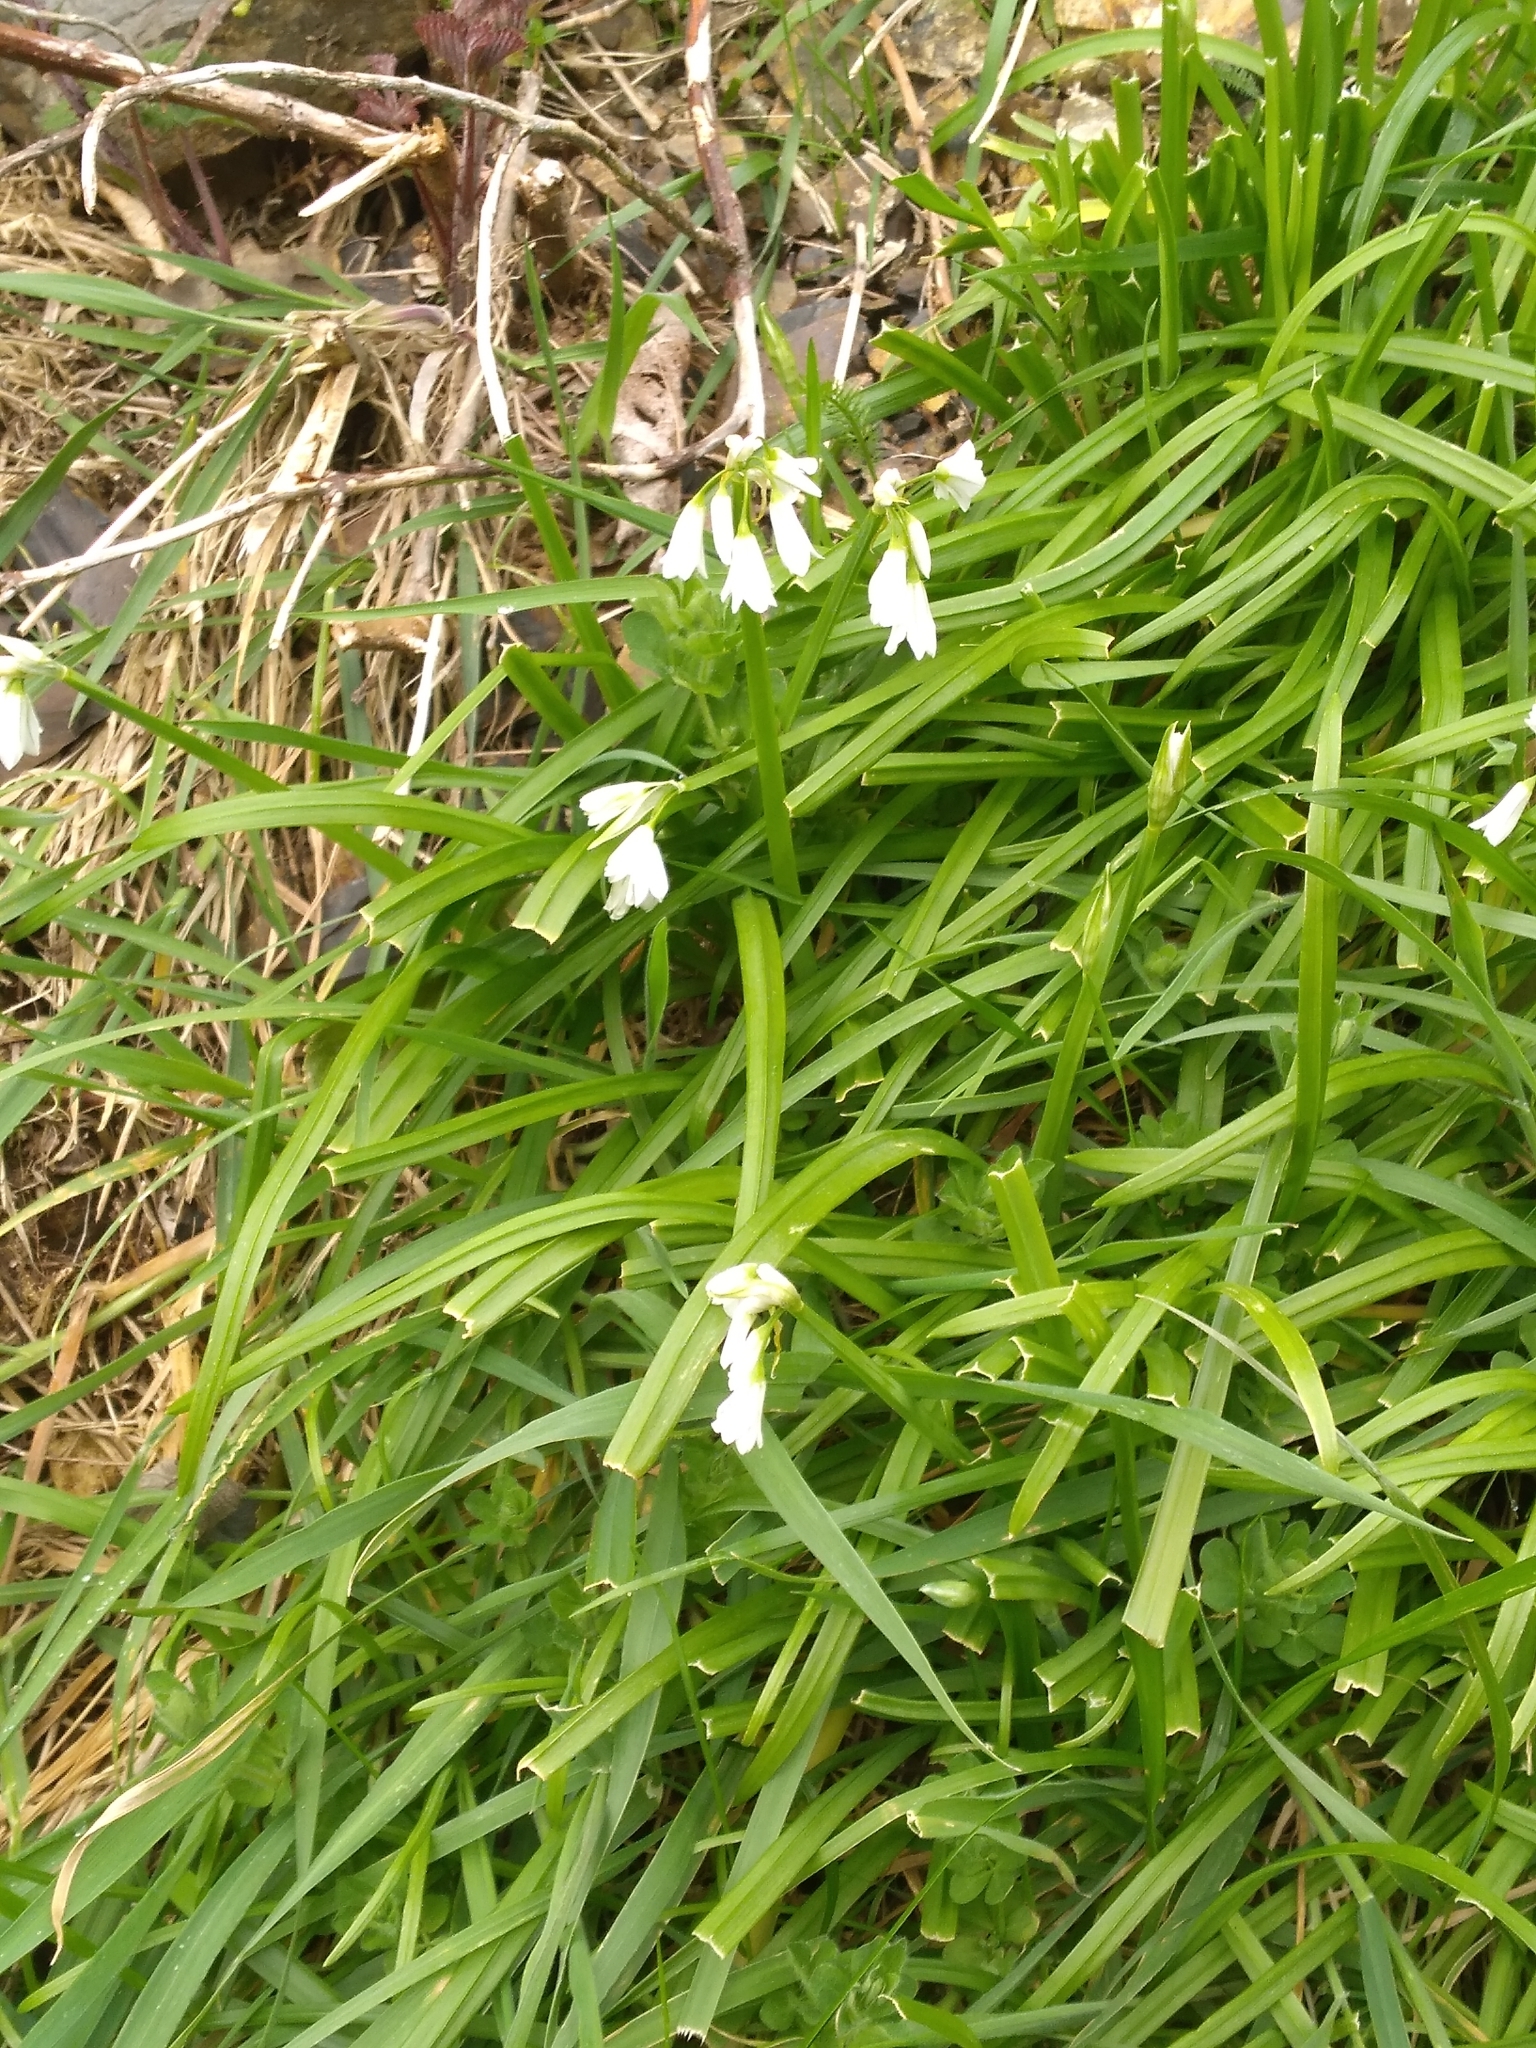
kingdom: Plantae
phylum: Tracheophyta
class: Liliopsida
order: Asparagales
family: Amaryllidaceae
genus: Allium
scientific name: Allium triquetrum
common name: Three-cornered garlic
